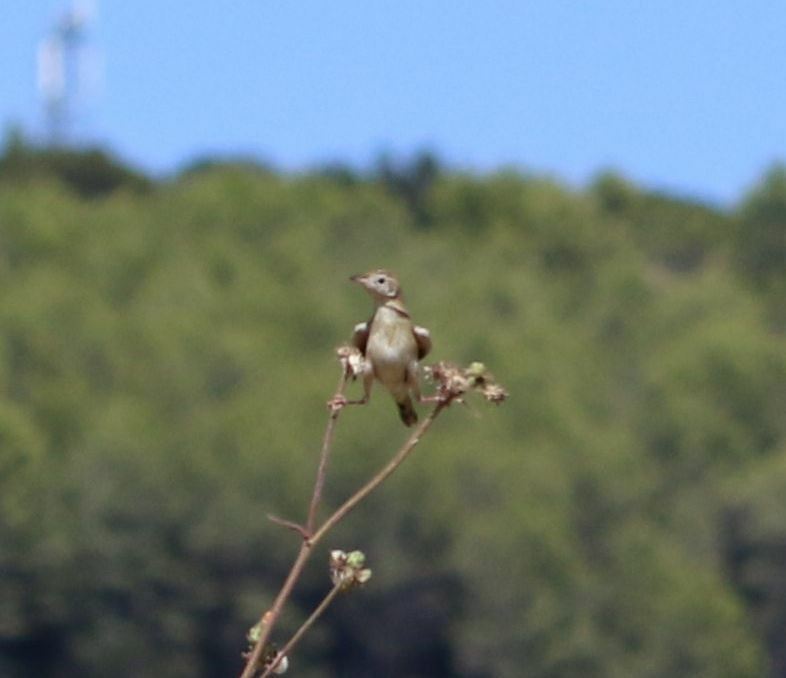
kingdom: Animalia
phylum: Chordata
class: Aves
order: Passeriformes
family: Cisticolidae
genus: Cisticola
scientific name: Cisticola juncidis
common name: Zitting cisticola
